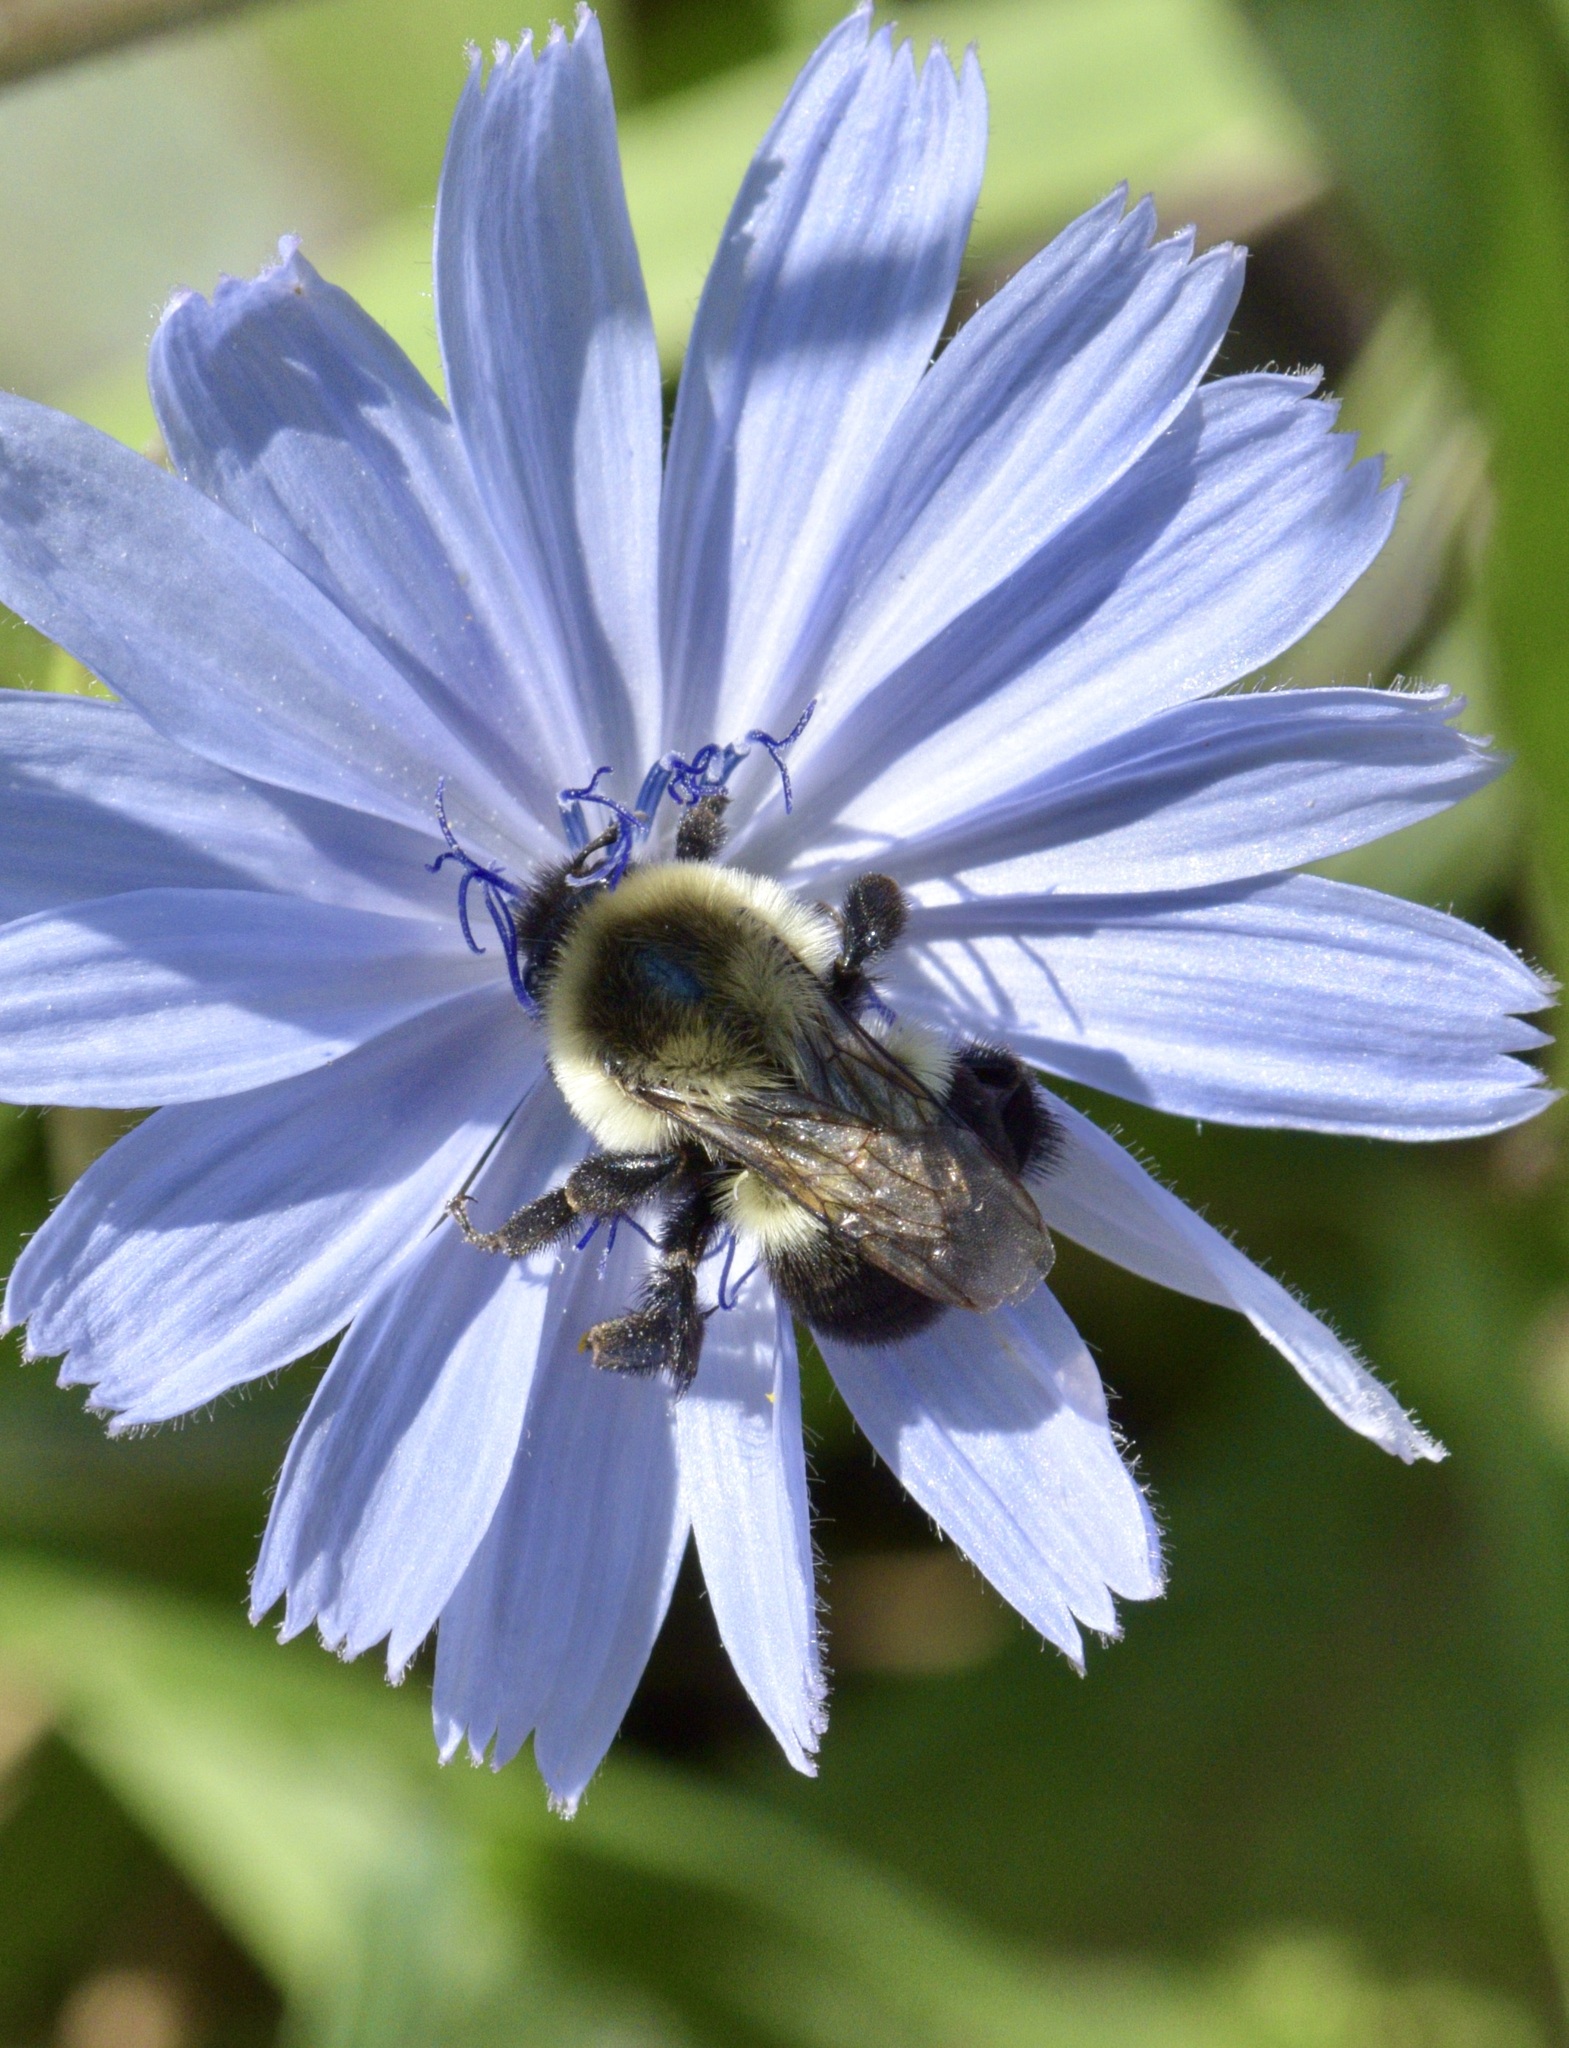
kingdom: Animalia
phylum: Arthropoda
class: Insecta
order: Hymenoptera
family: Apidae
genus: Bombus
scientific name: Bombus impatiens
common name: Common eastern bumble bee
